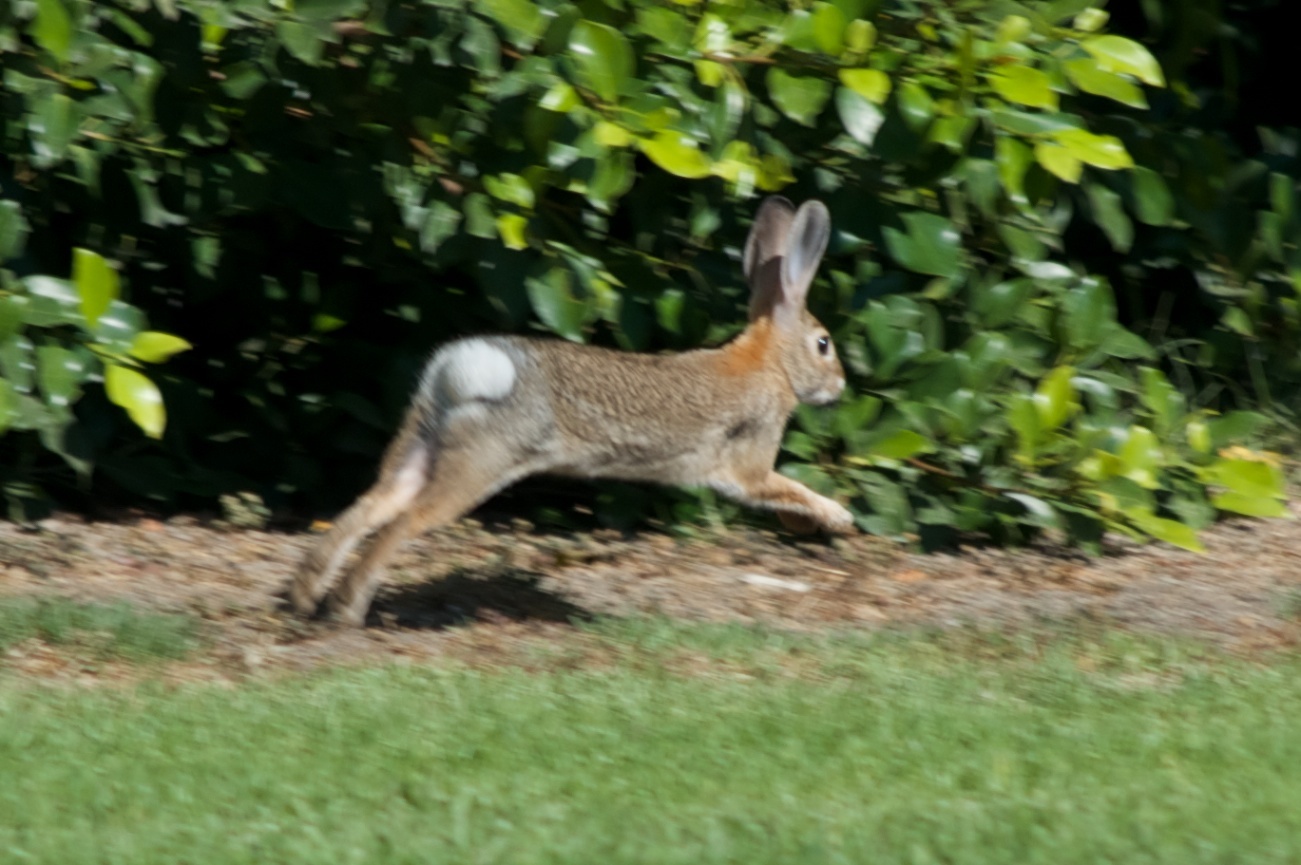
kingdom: Animalia
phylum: Chordata
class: Mammalia
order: Lagomorpha
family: Leporidae
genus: Sylvilagus
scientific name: Sylvilagus audubonii
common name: Desert cottontail
